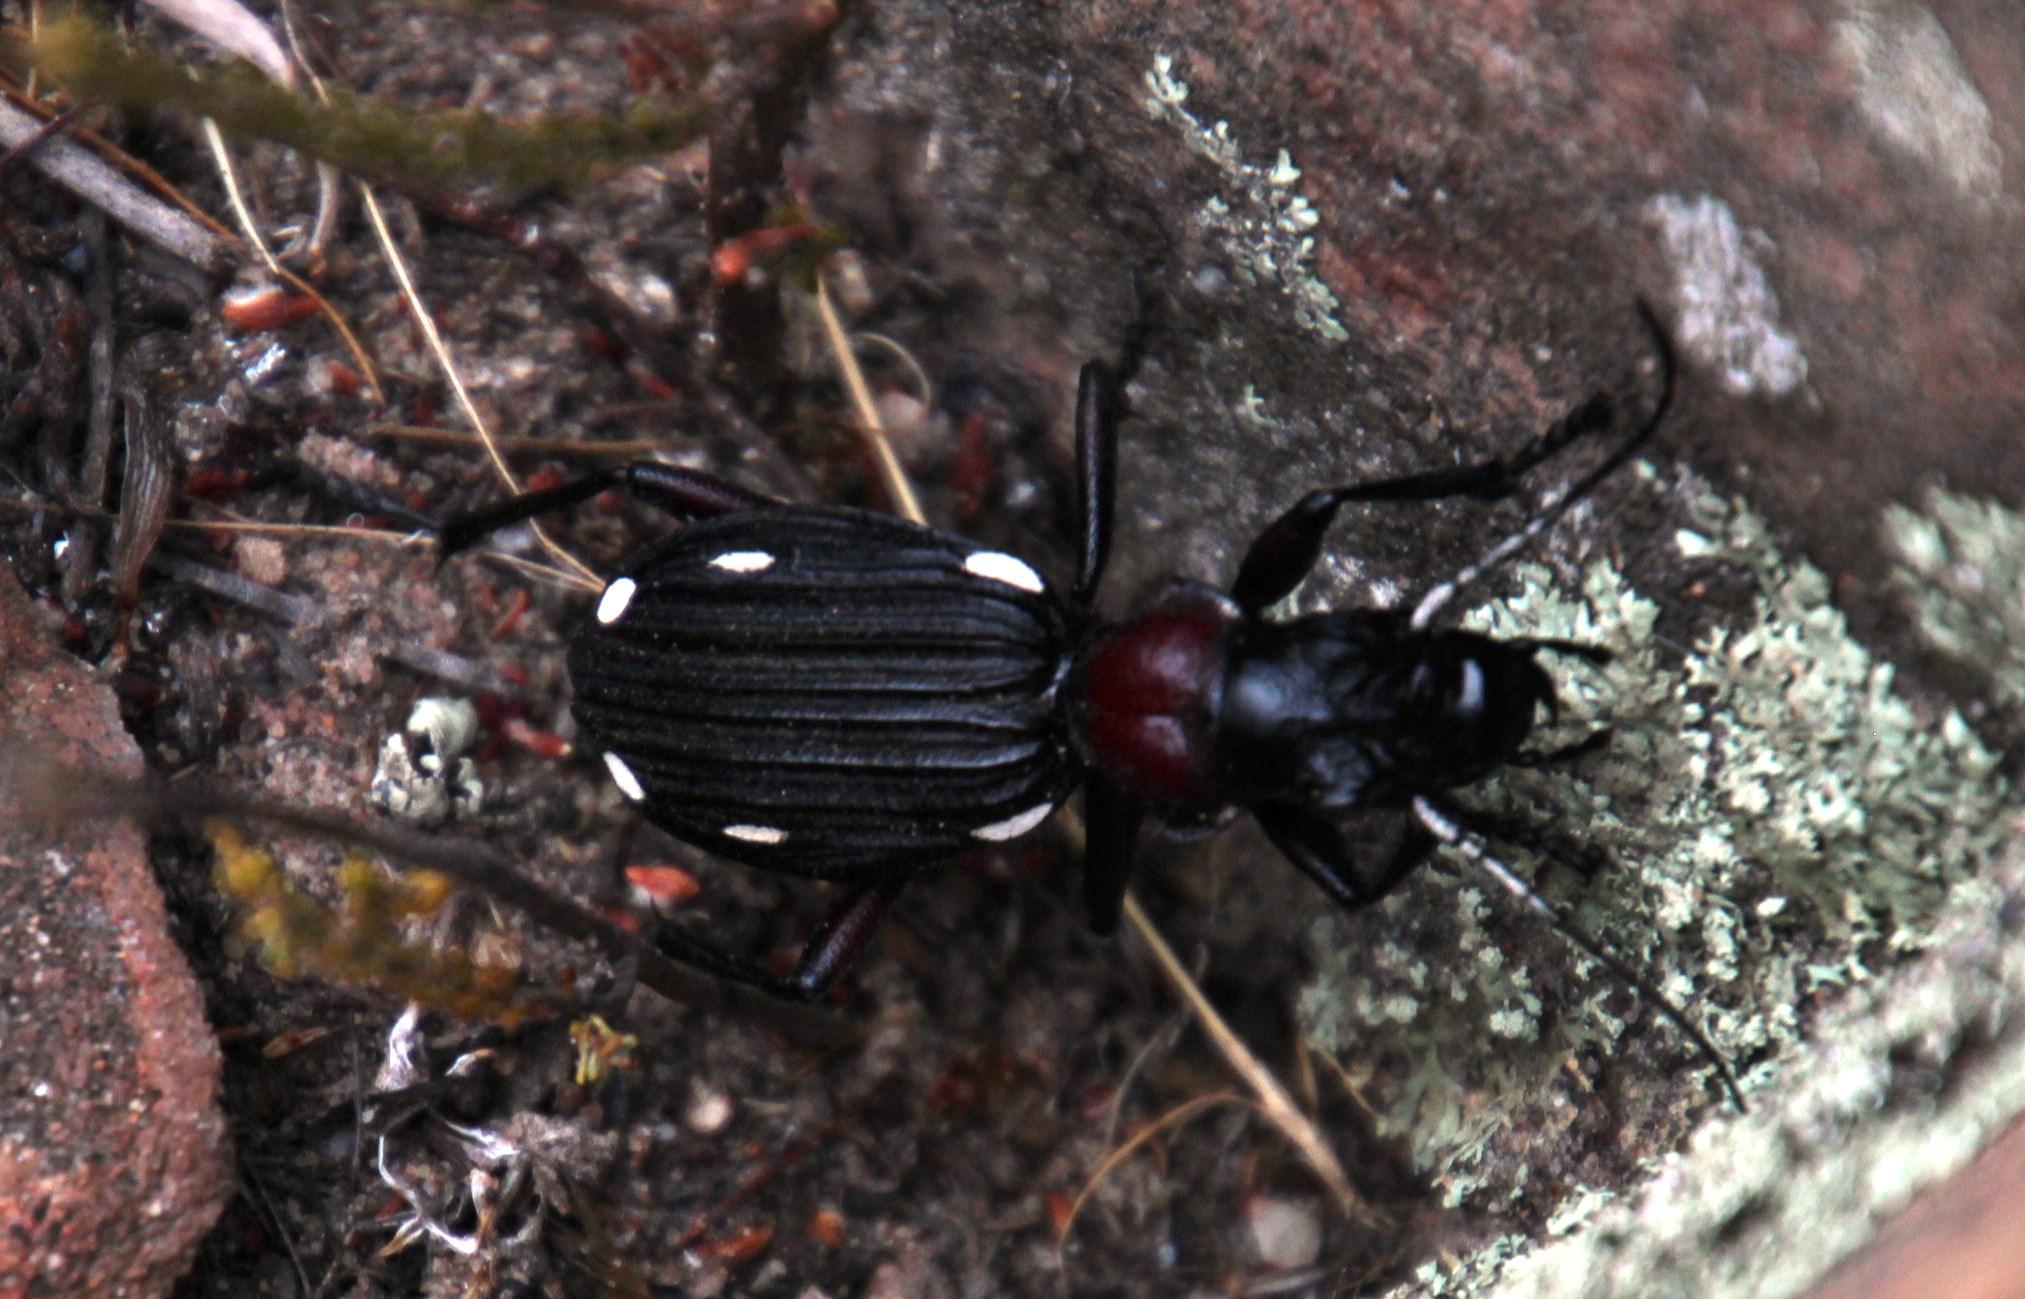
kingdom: Animalia
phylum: Arthropoda
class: Insecta
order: Coleoptera
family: Carabidae
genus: Anthia
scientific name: Anthia decemguttata
